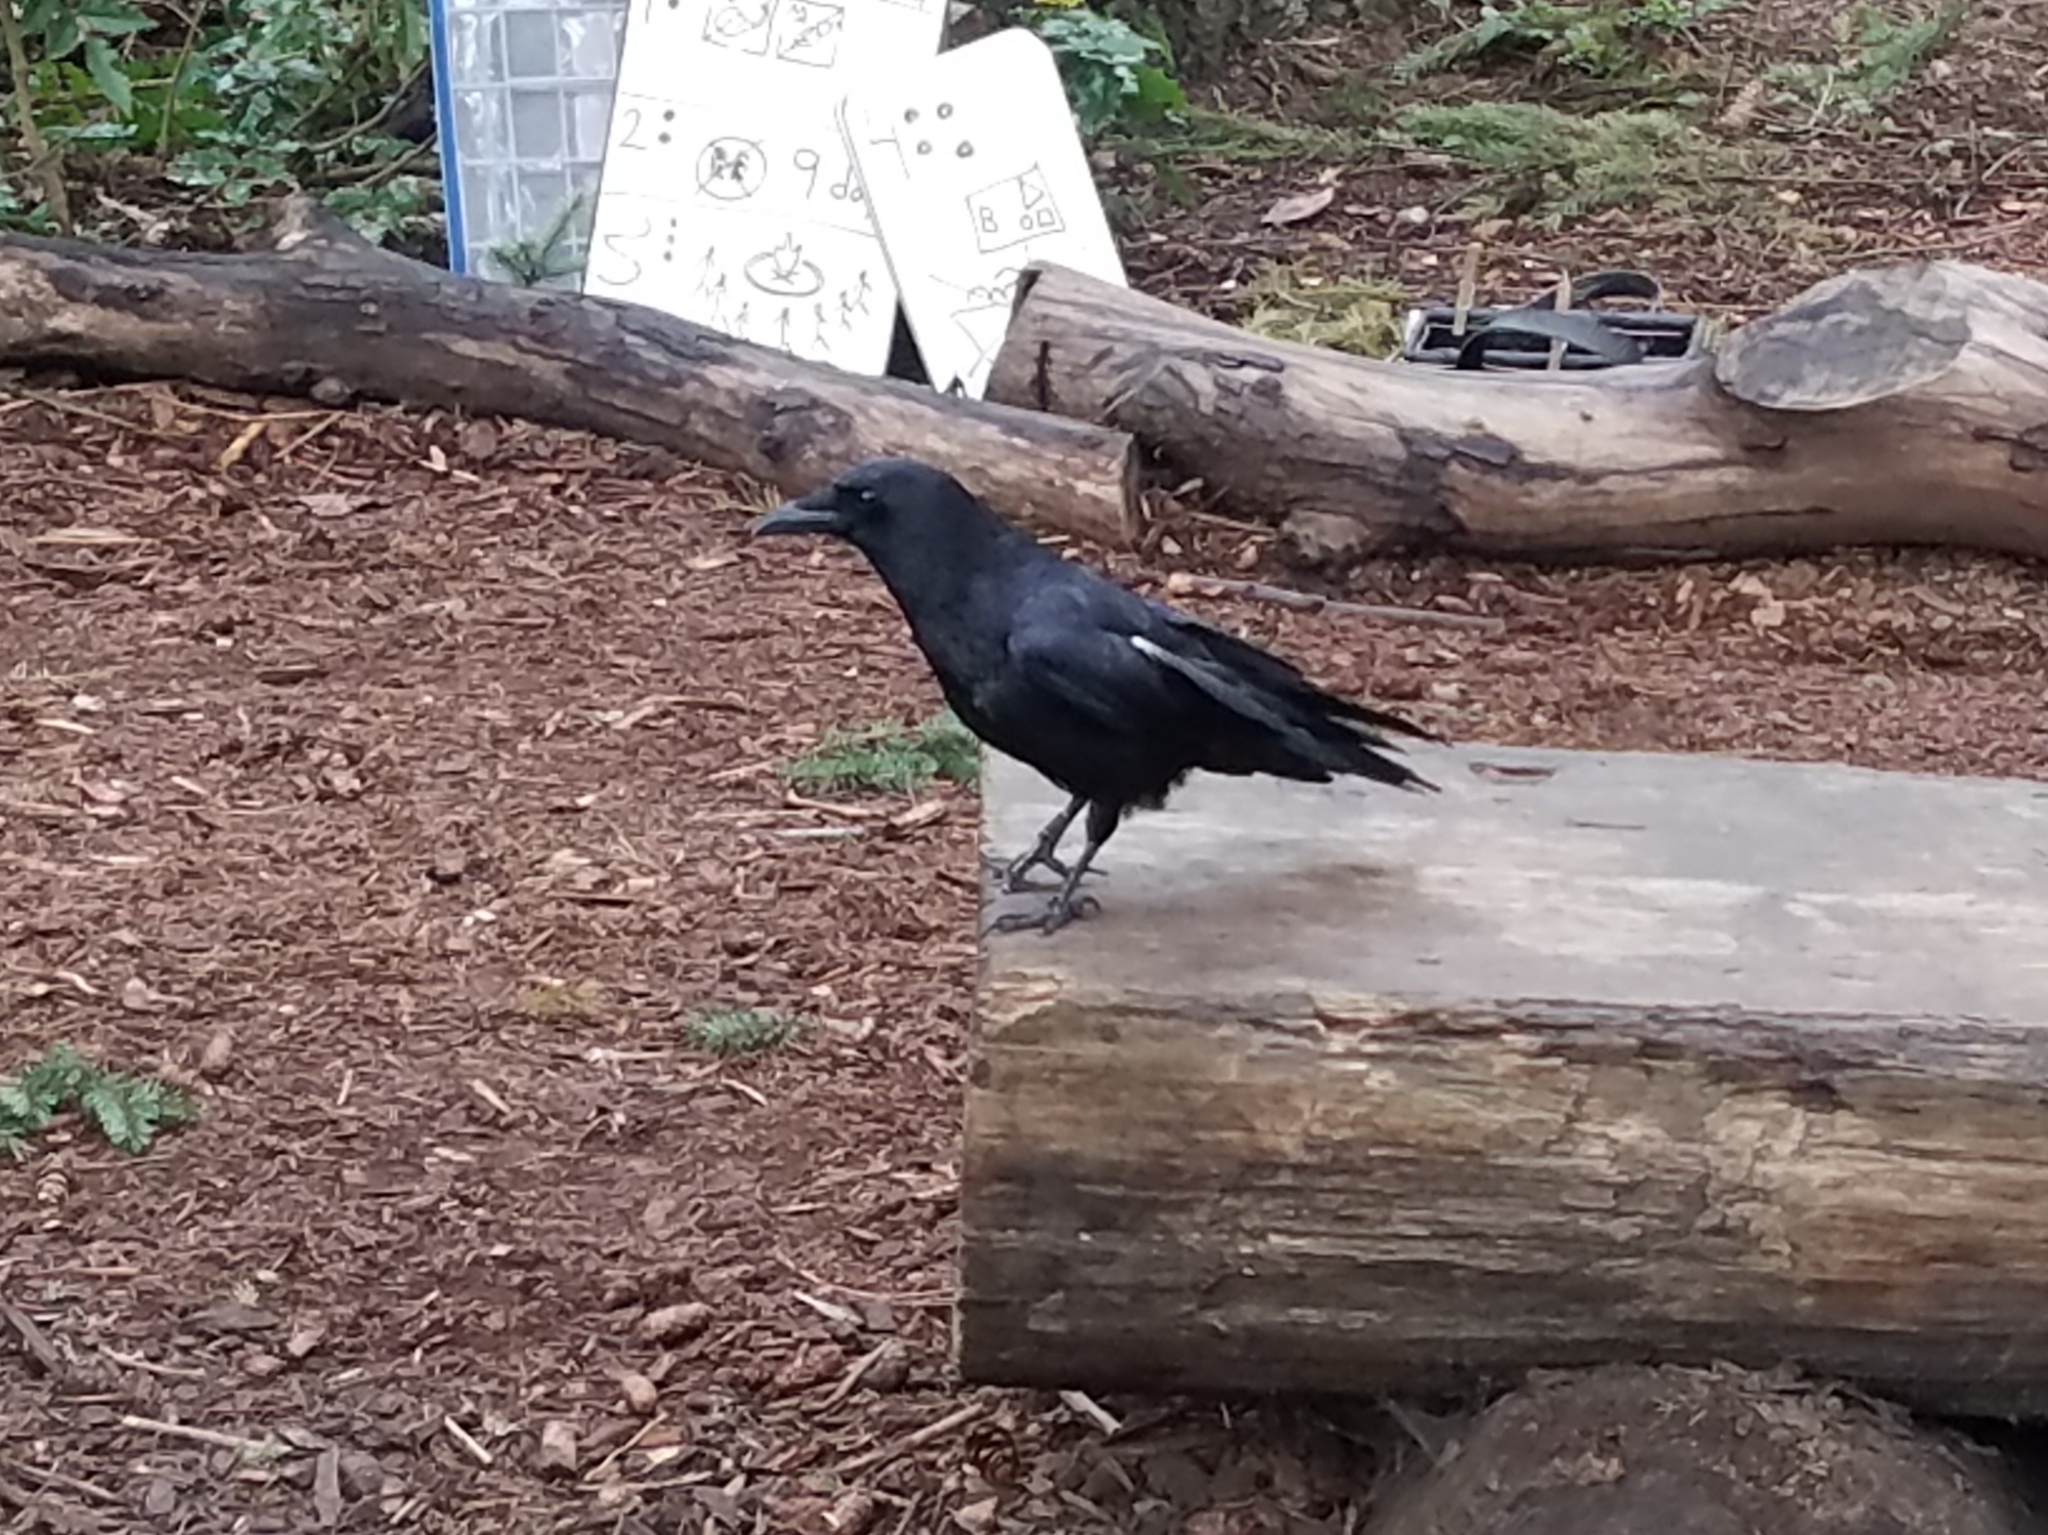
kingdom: Animalia
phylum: Chordata
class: Aves
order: Passeriformes
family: Corvidae
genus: Corvus
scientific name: Corvus brachyrhynchos
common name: American crow
